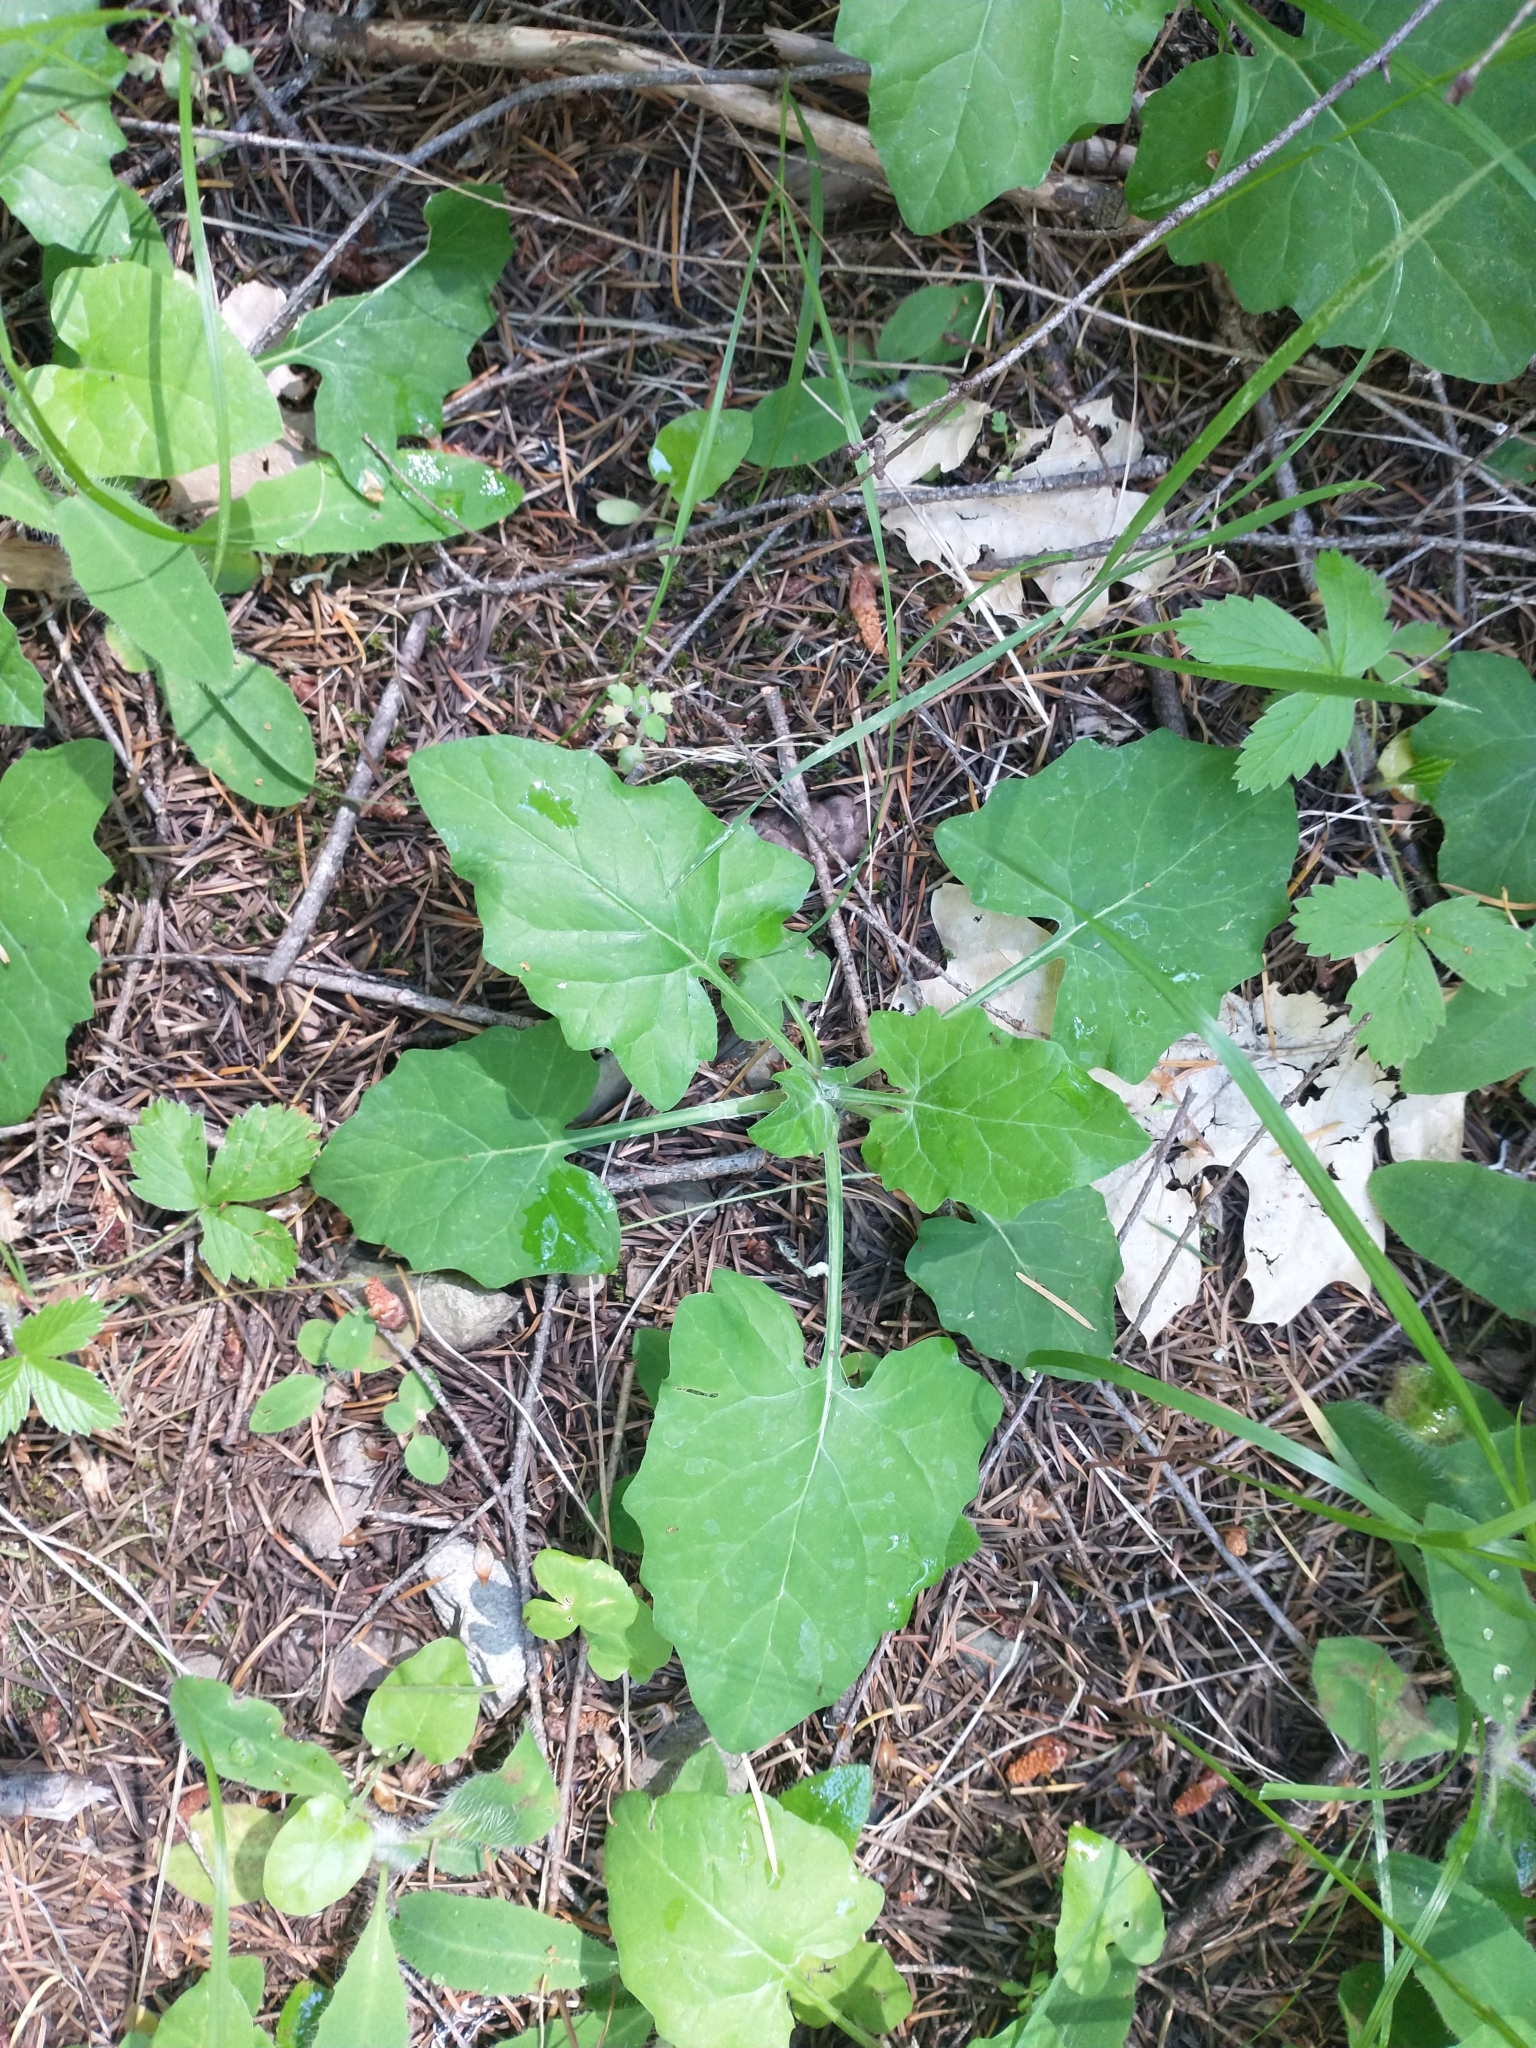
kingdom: Plantae
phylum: Tracheophyta
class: Magnoliopsida
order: Asterales
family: Asteraceae
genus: Adenocaulon
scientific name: Adenocaulon bicolor
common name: Trailplant
